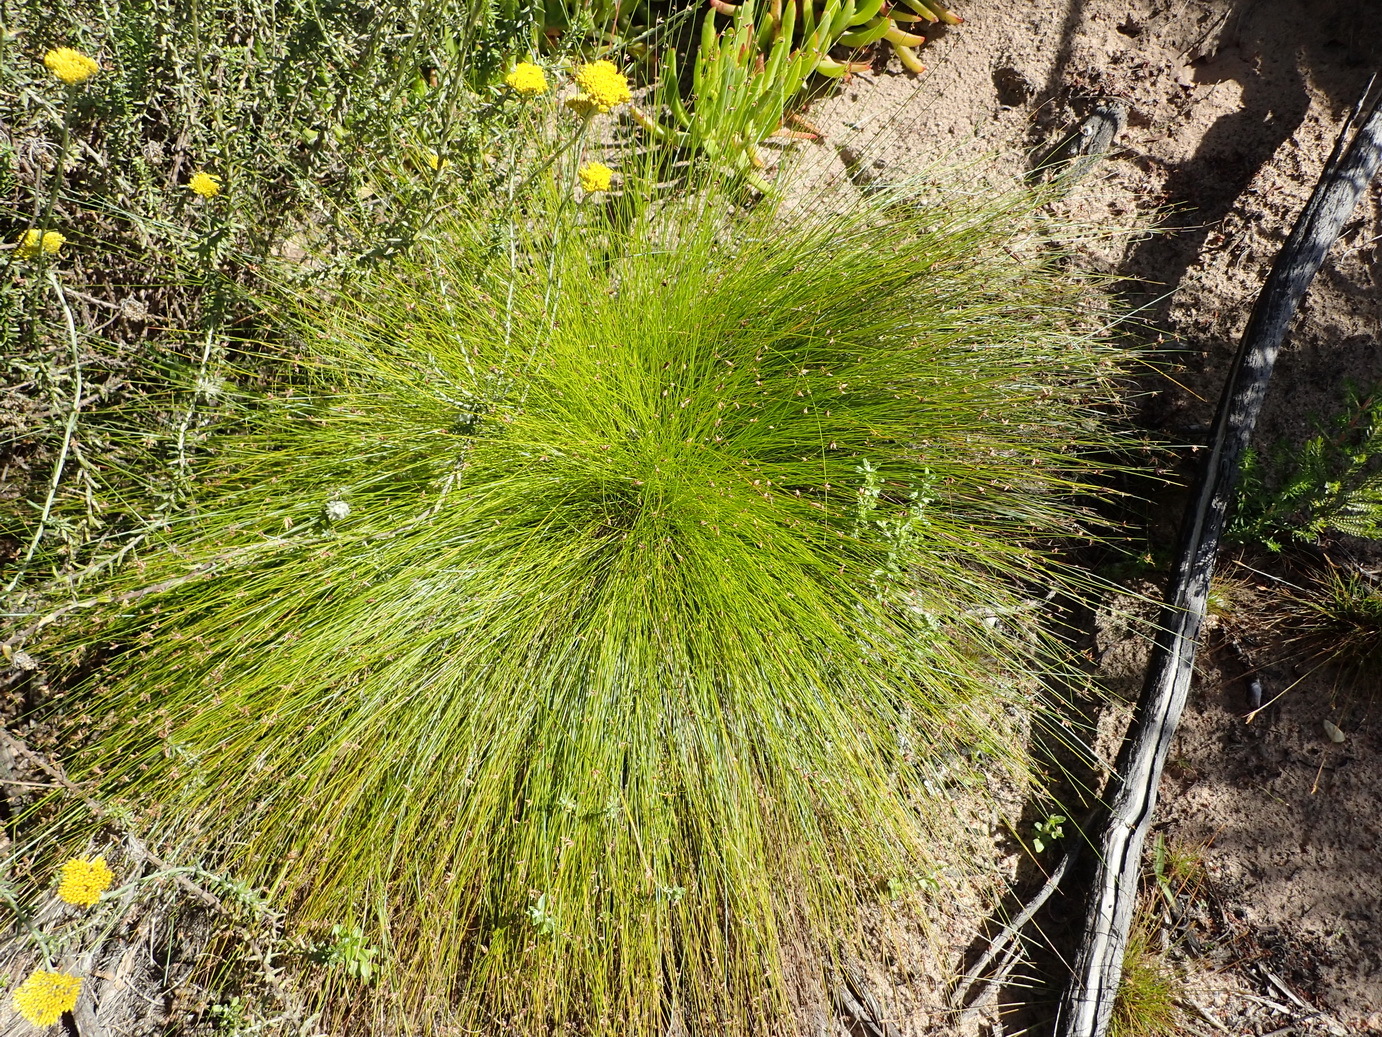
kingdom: Plantae
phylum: Tracheophyta
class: Liliopsida
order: Poales
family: Cyperaceae
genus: Ficinia
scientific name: Ficinia oligantha
